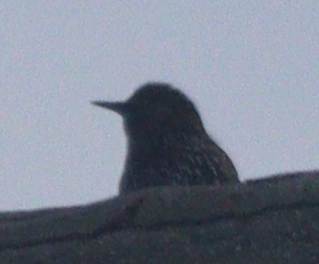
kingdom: Animalia
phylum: Chordata
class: Aves
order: Passeriformes
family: Sturnidae
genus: Sturnus
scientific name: Sturnus vulgaris
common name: Common starling
